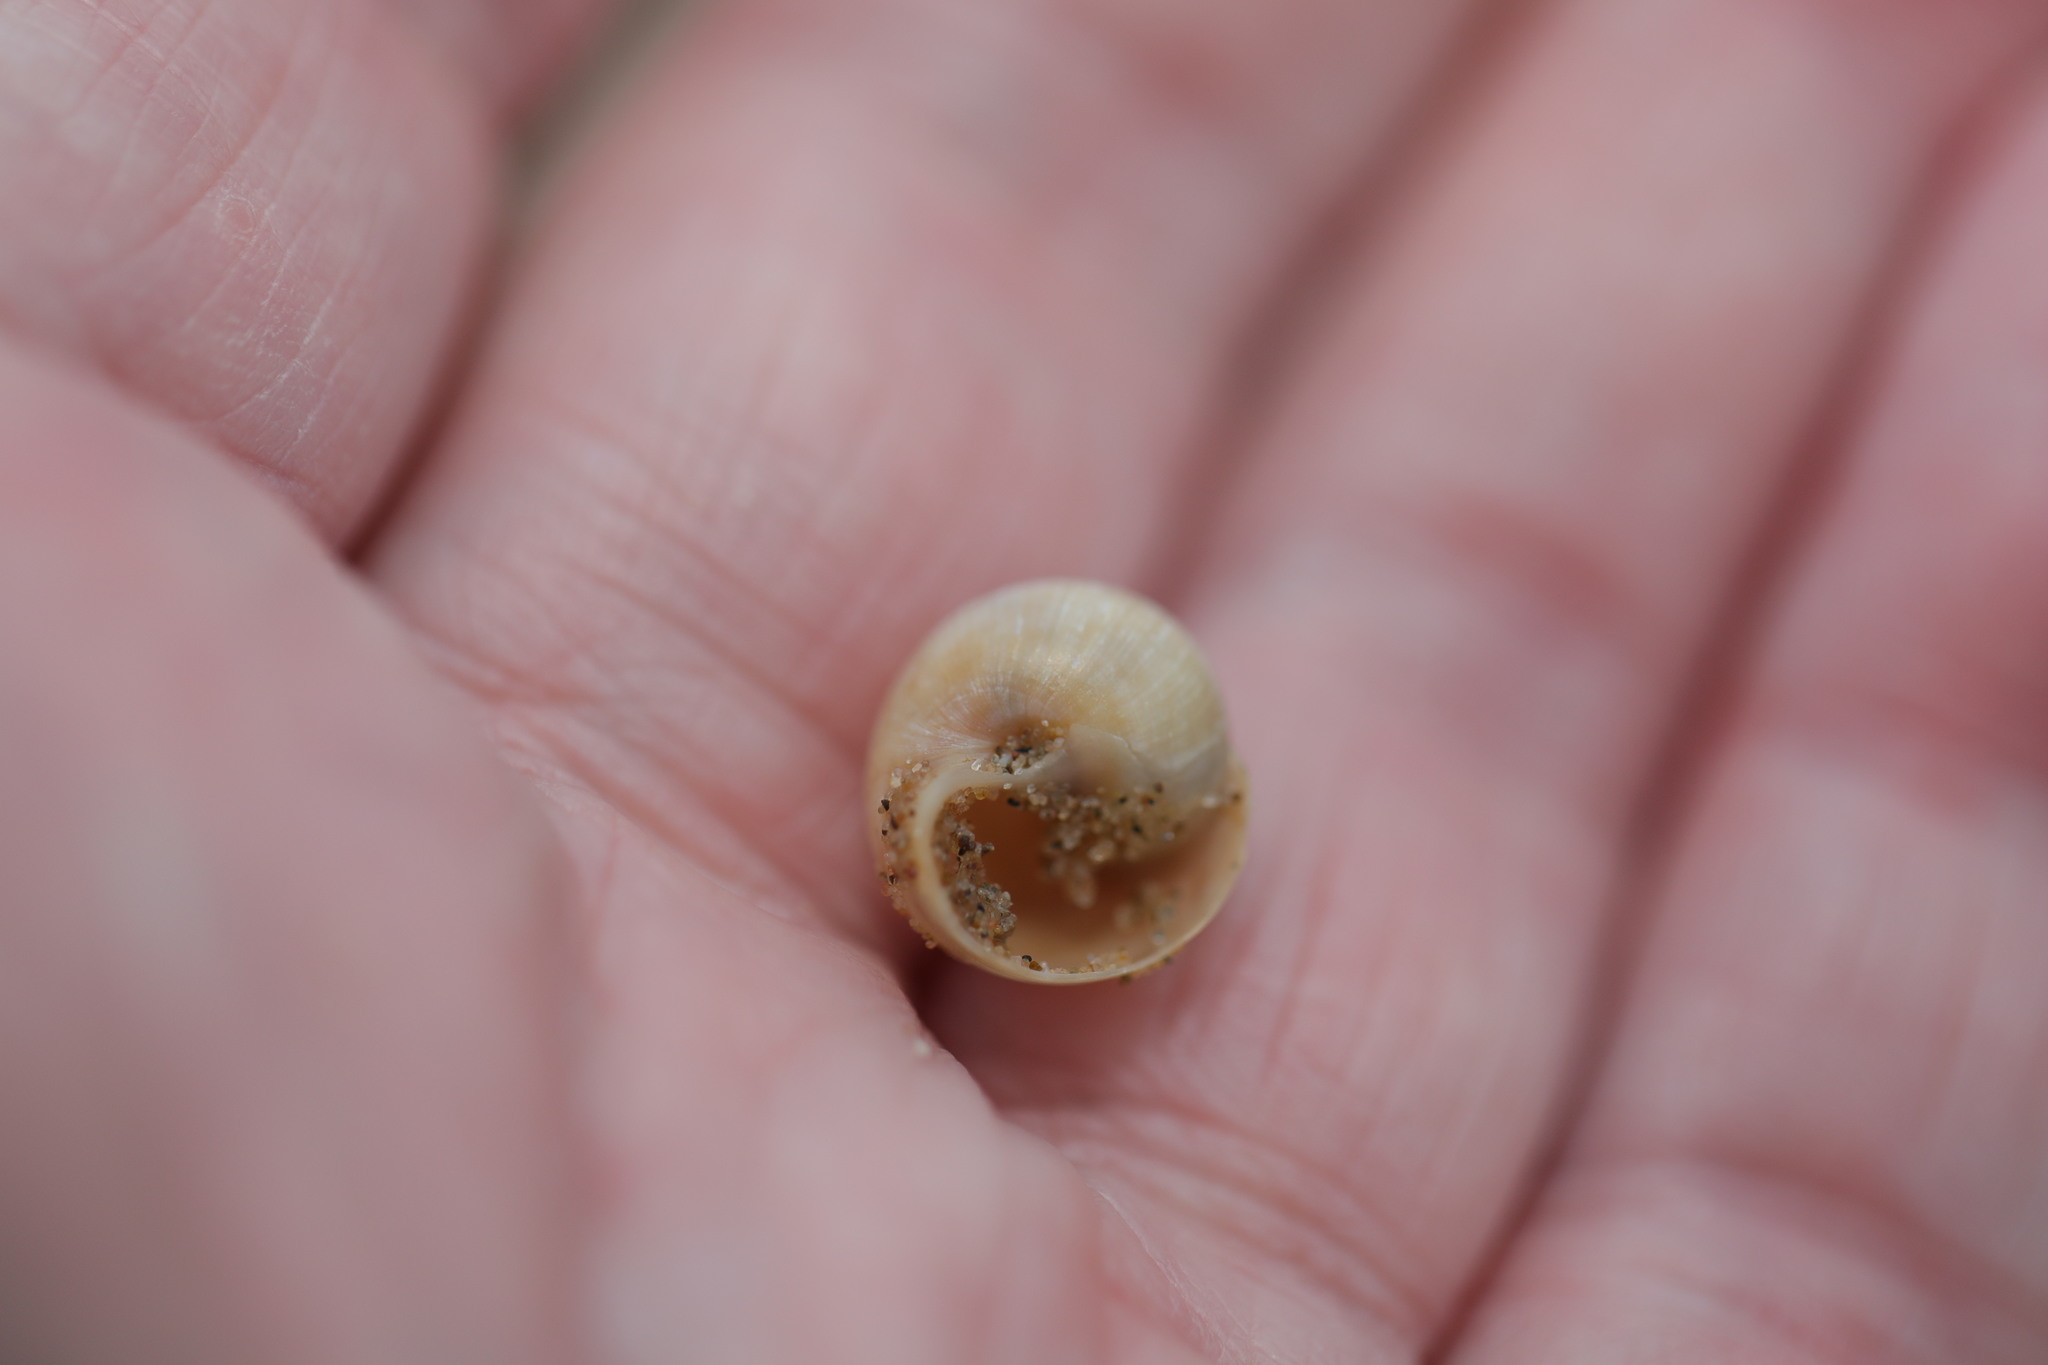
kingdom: Animalia
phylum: Mollusca
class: Gastropoda
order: Littorinimorpha
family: Naticidae
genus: Euspira
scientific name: Euspira nitida
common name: Alder's necklace shell
